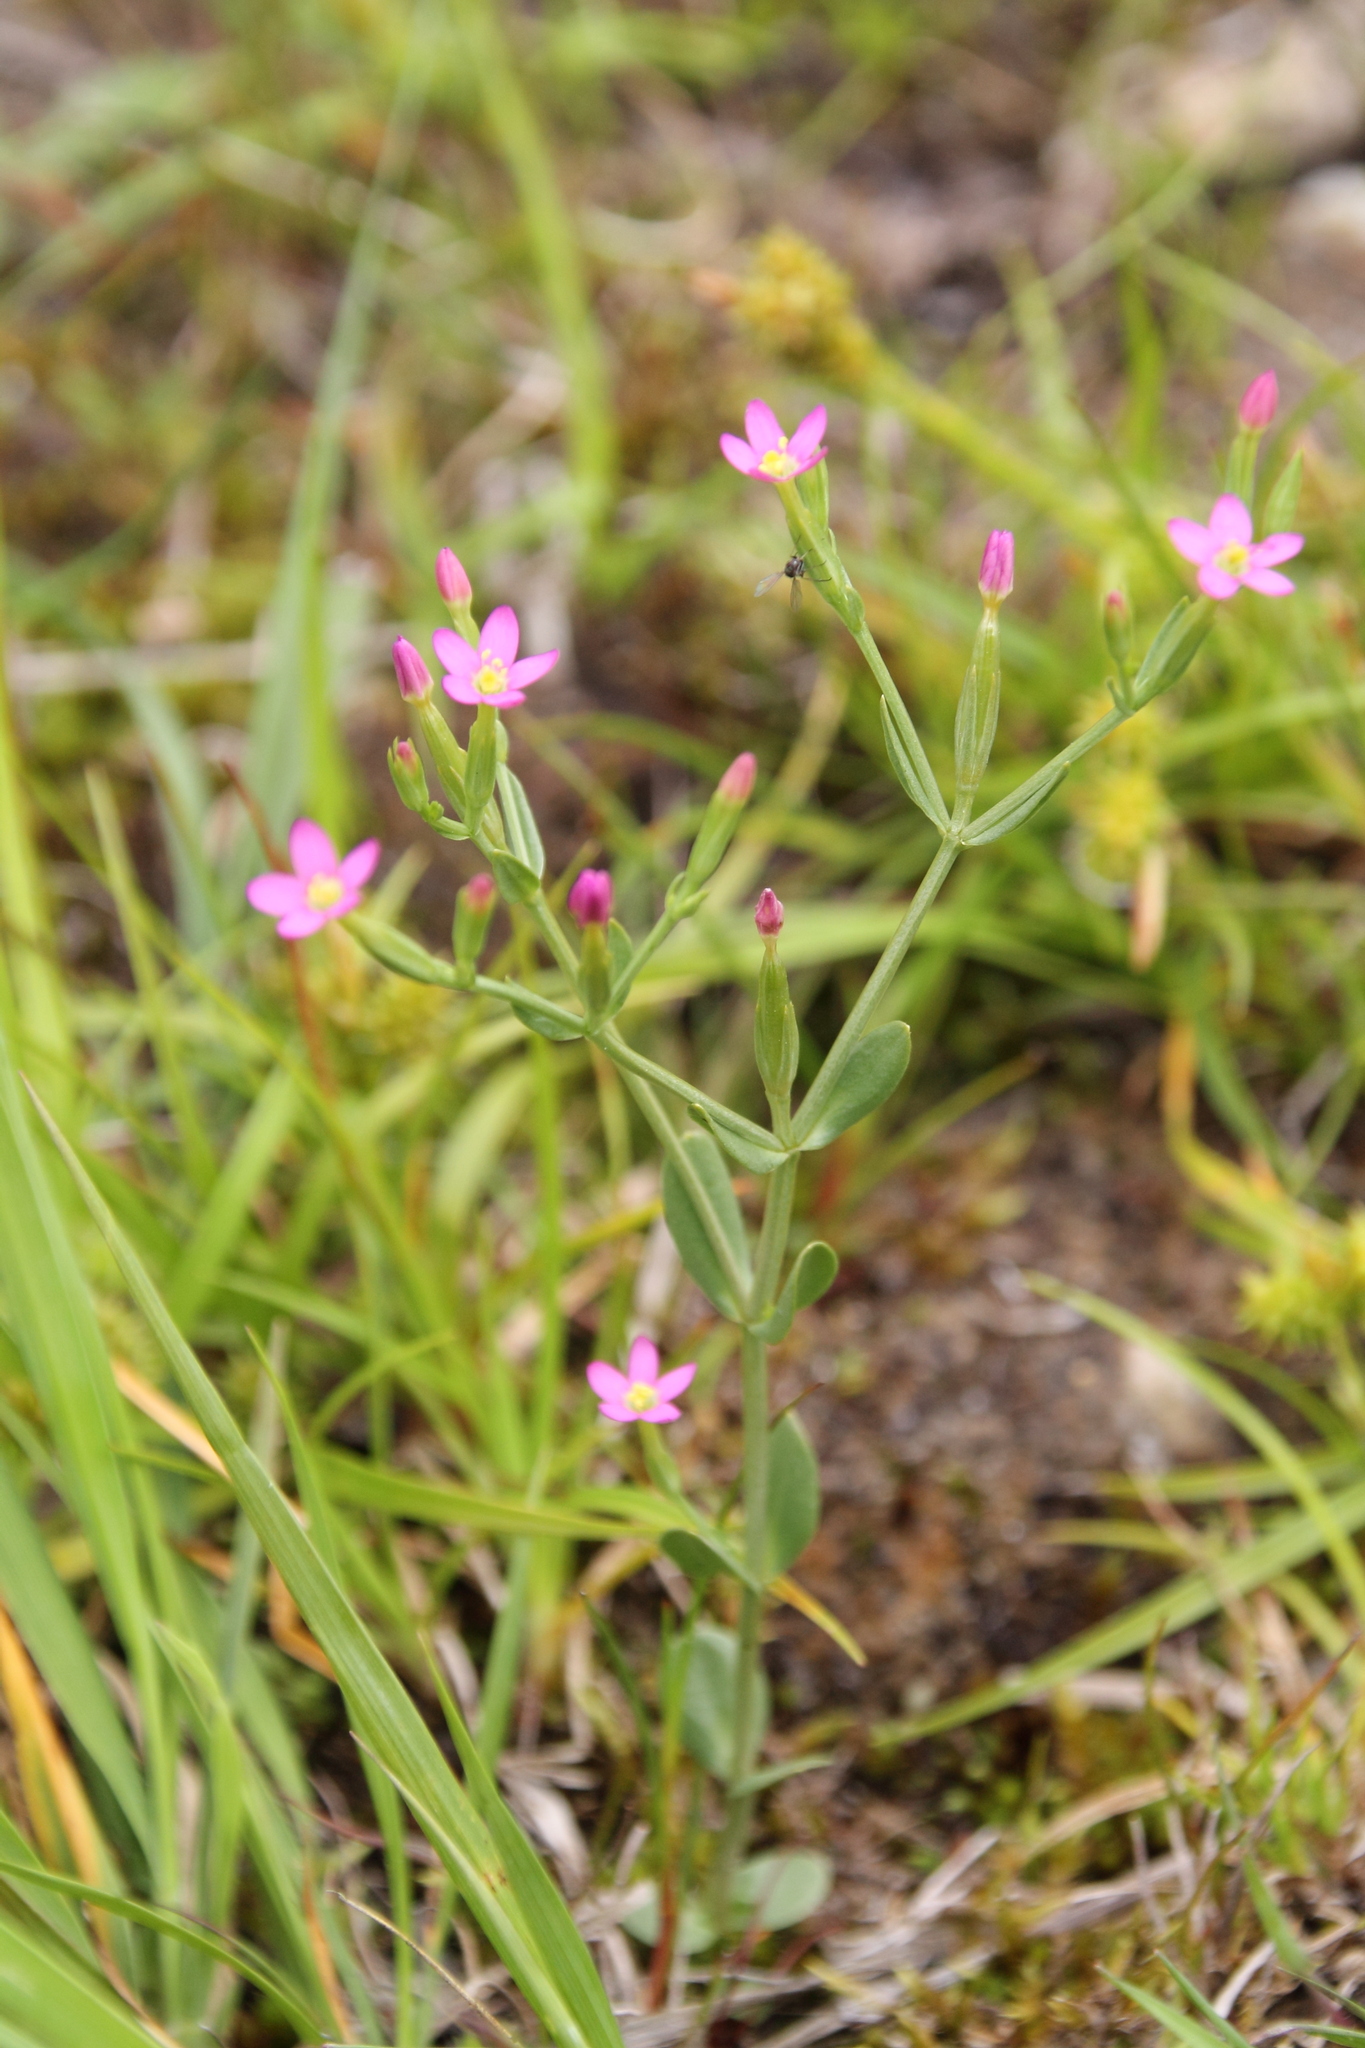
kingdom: Plantae
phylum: Tracheophyta
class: Magnoliopsida
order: Gentianales
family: Gentianaceae
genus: Centaurium
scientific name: Centaurium pulchellum
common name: Lesser centaury
